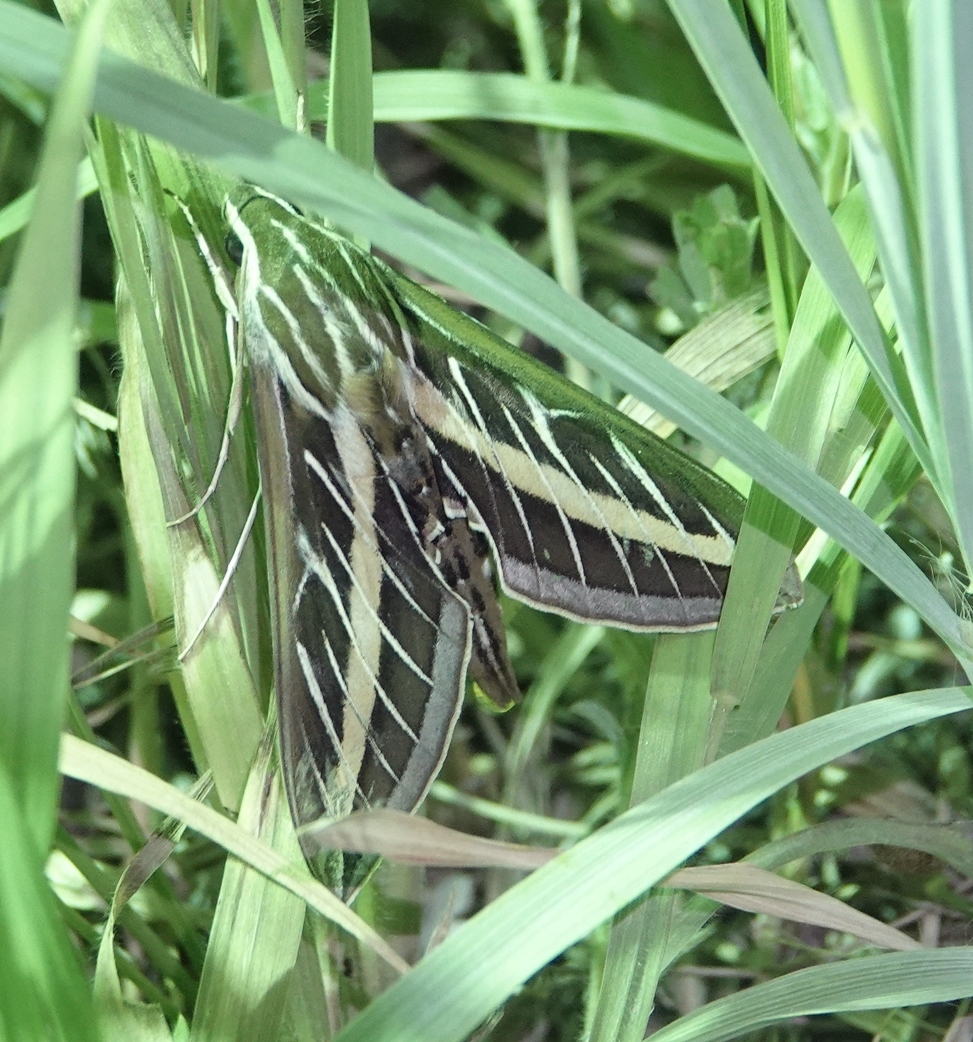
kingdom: Animalia
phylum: Arthropoda
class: Insecta
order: Lepidoptera
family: Sphingidae
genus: Hyles
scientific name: Hyles lineata
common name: White-lined sphinx
